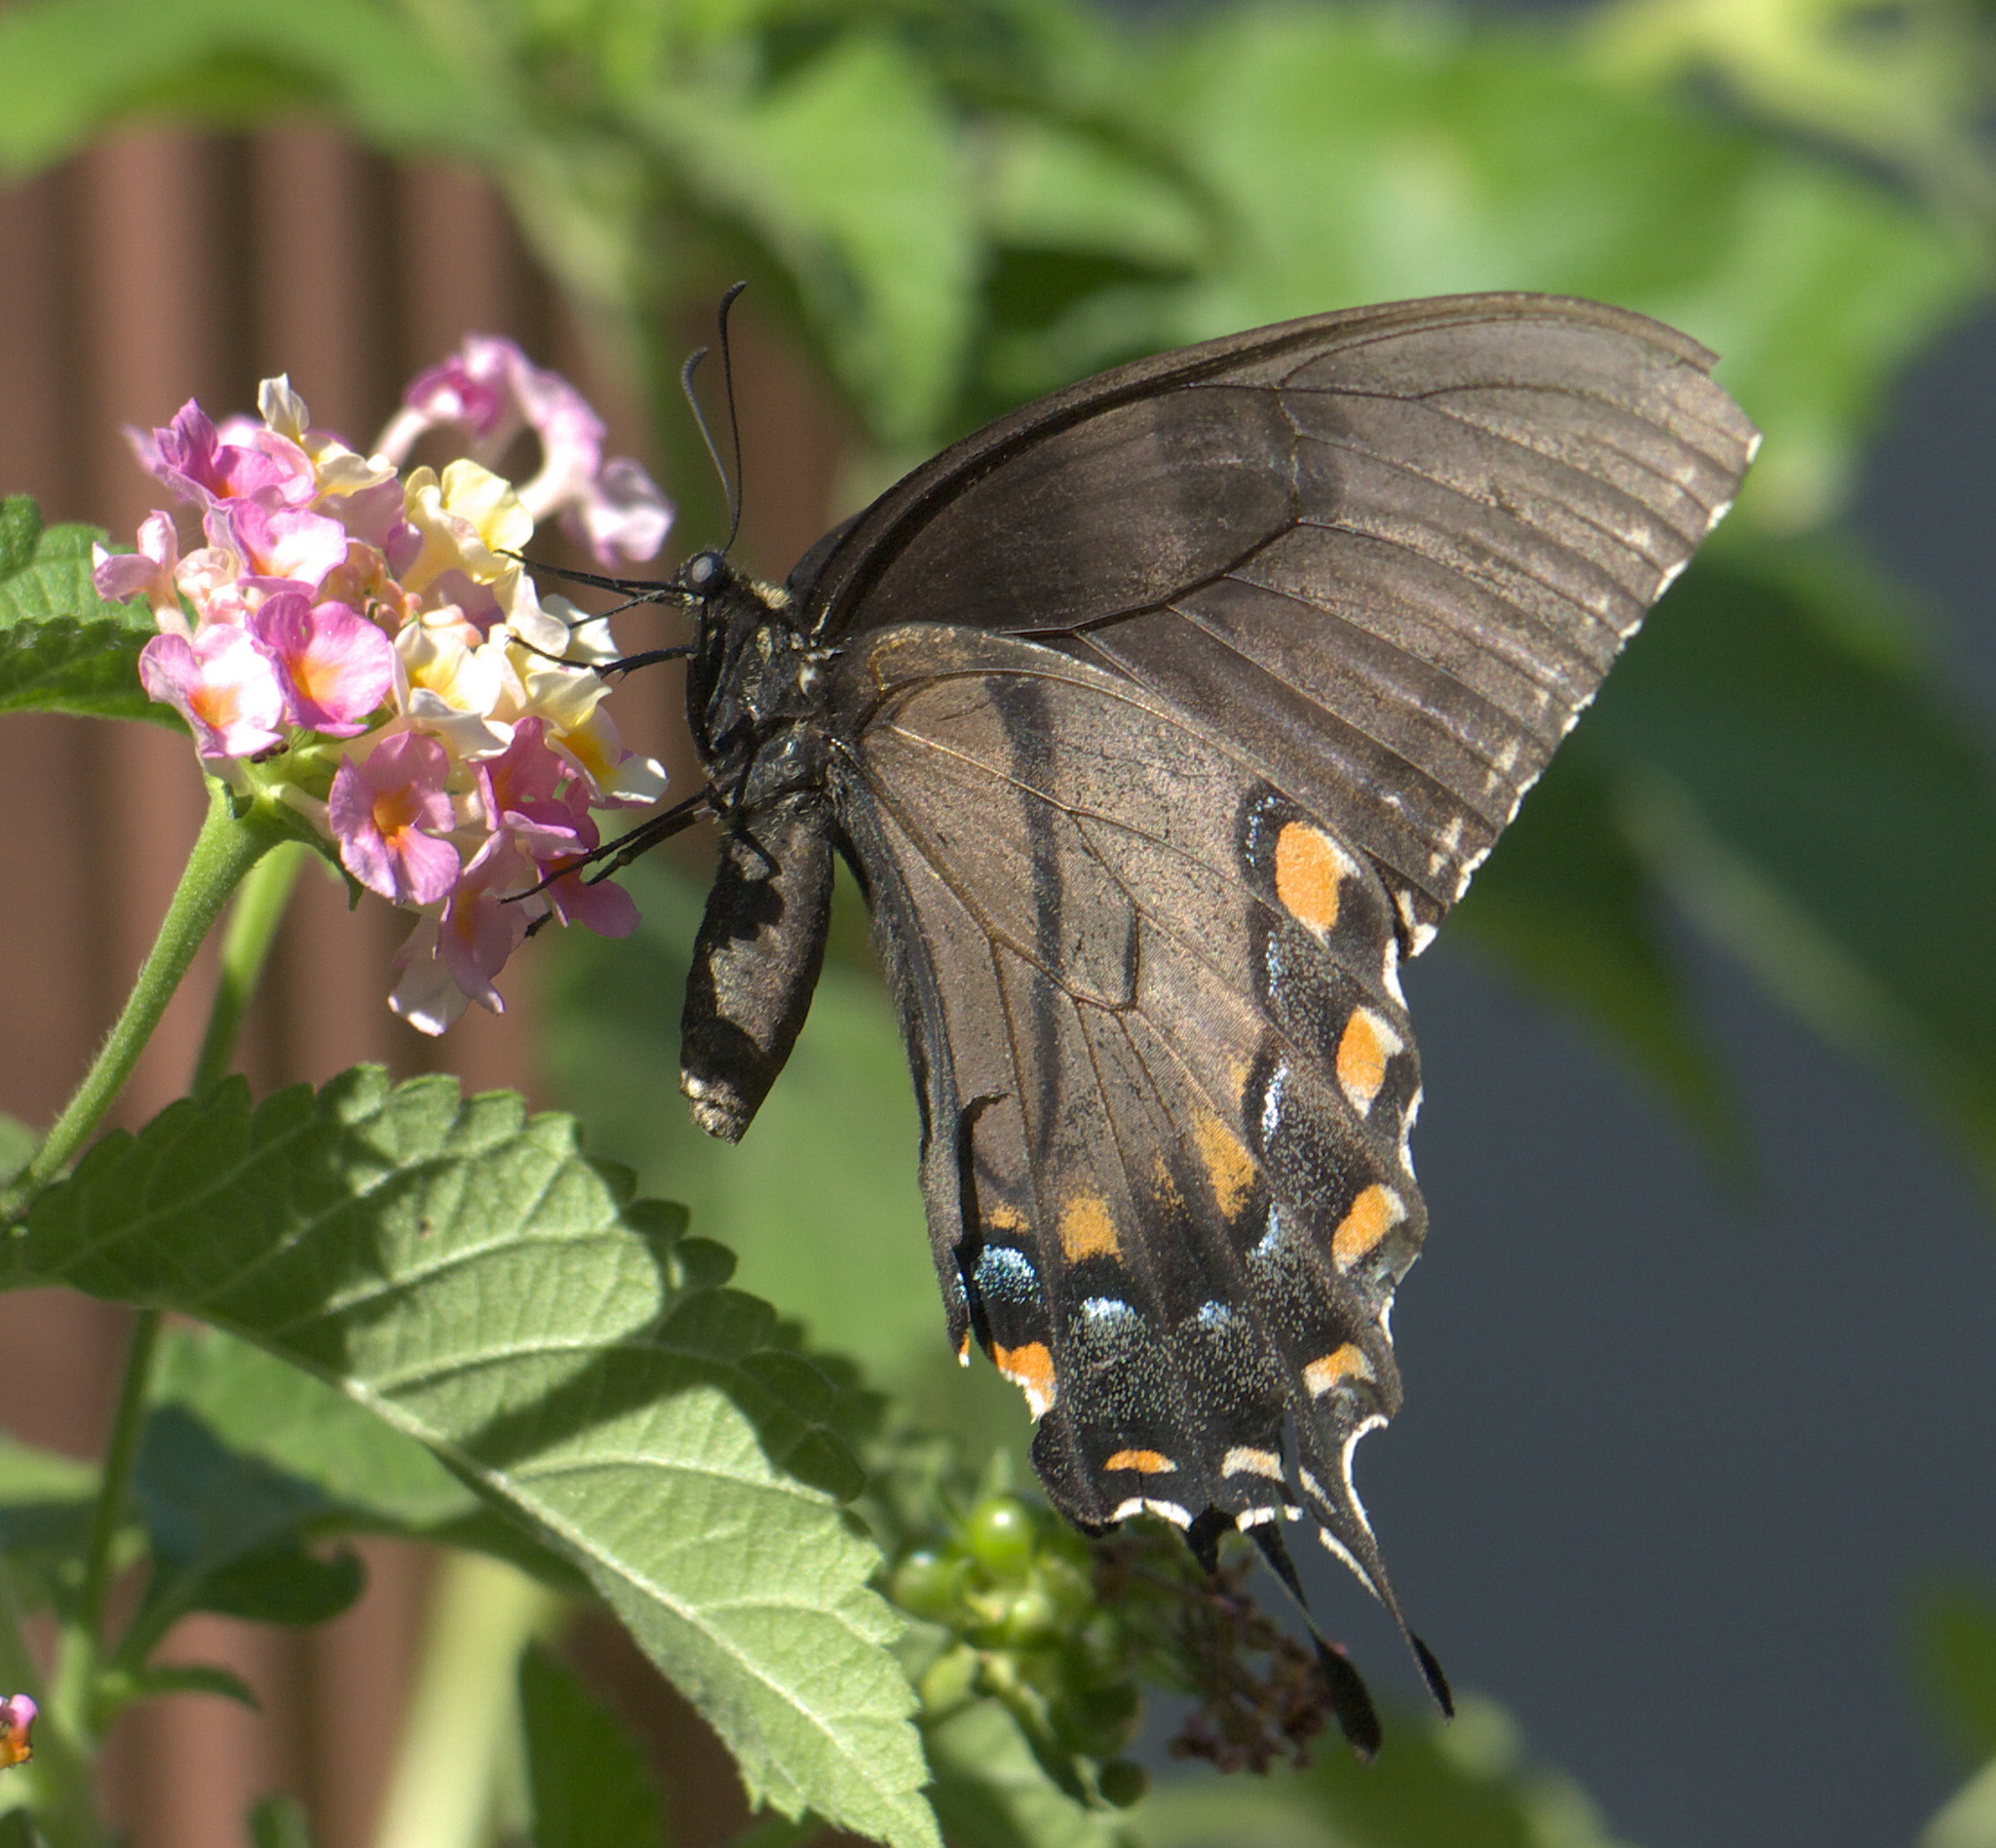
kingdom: Animalia
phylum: Arthropoda
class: Insecta
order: Lepidoptera
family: Papilionidae
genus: Papilio
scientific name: Papilio glaucus
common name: Tiger swallowtail
